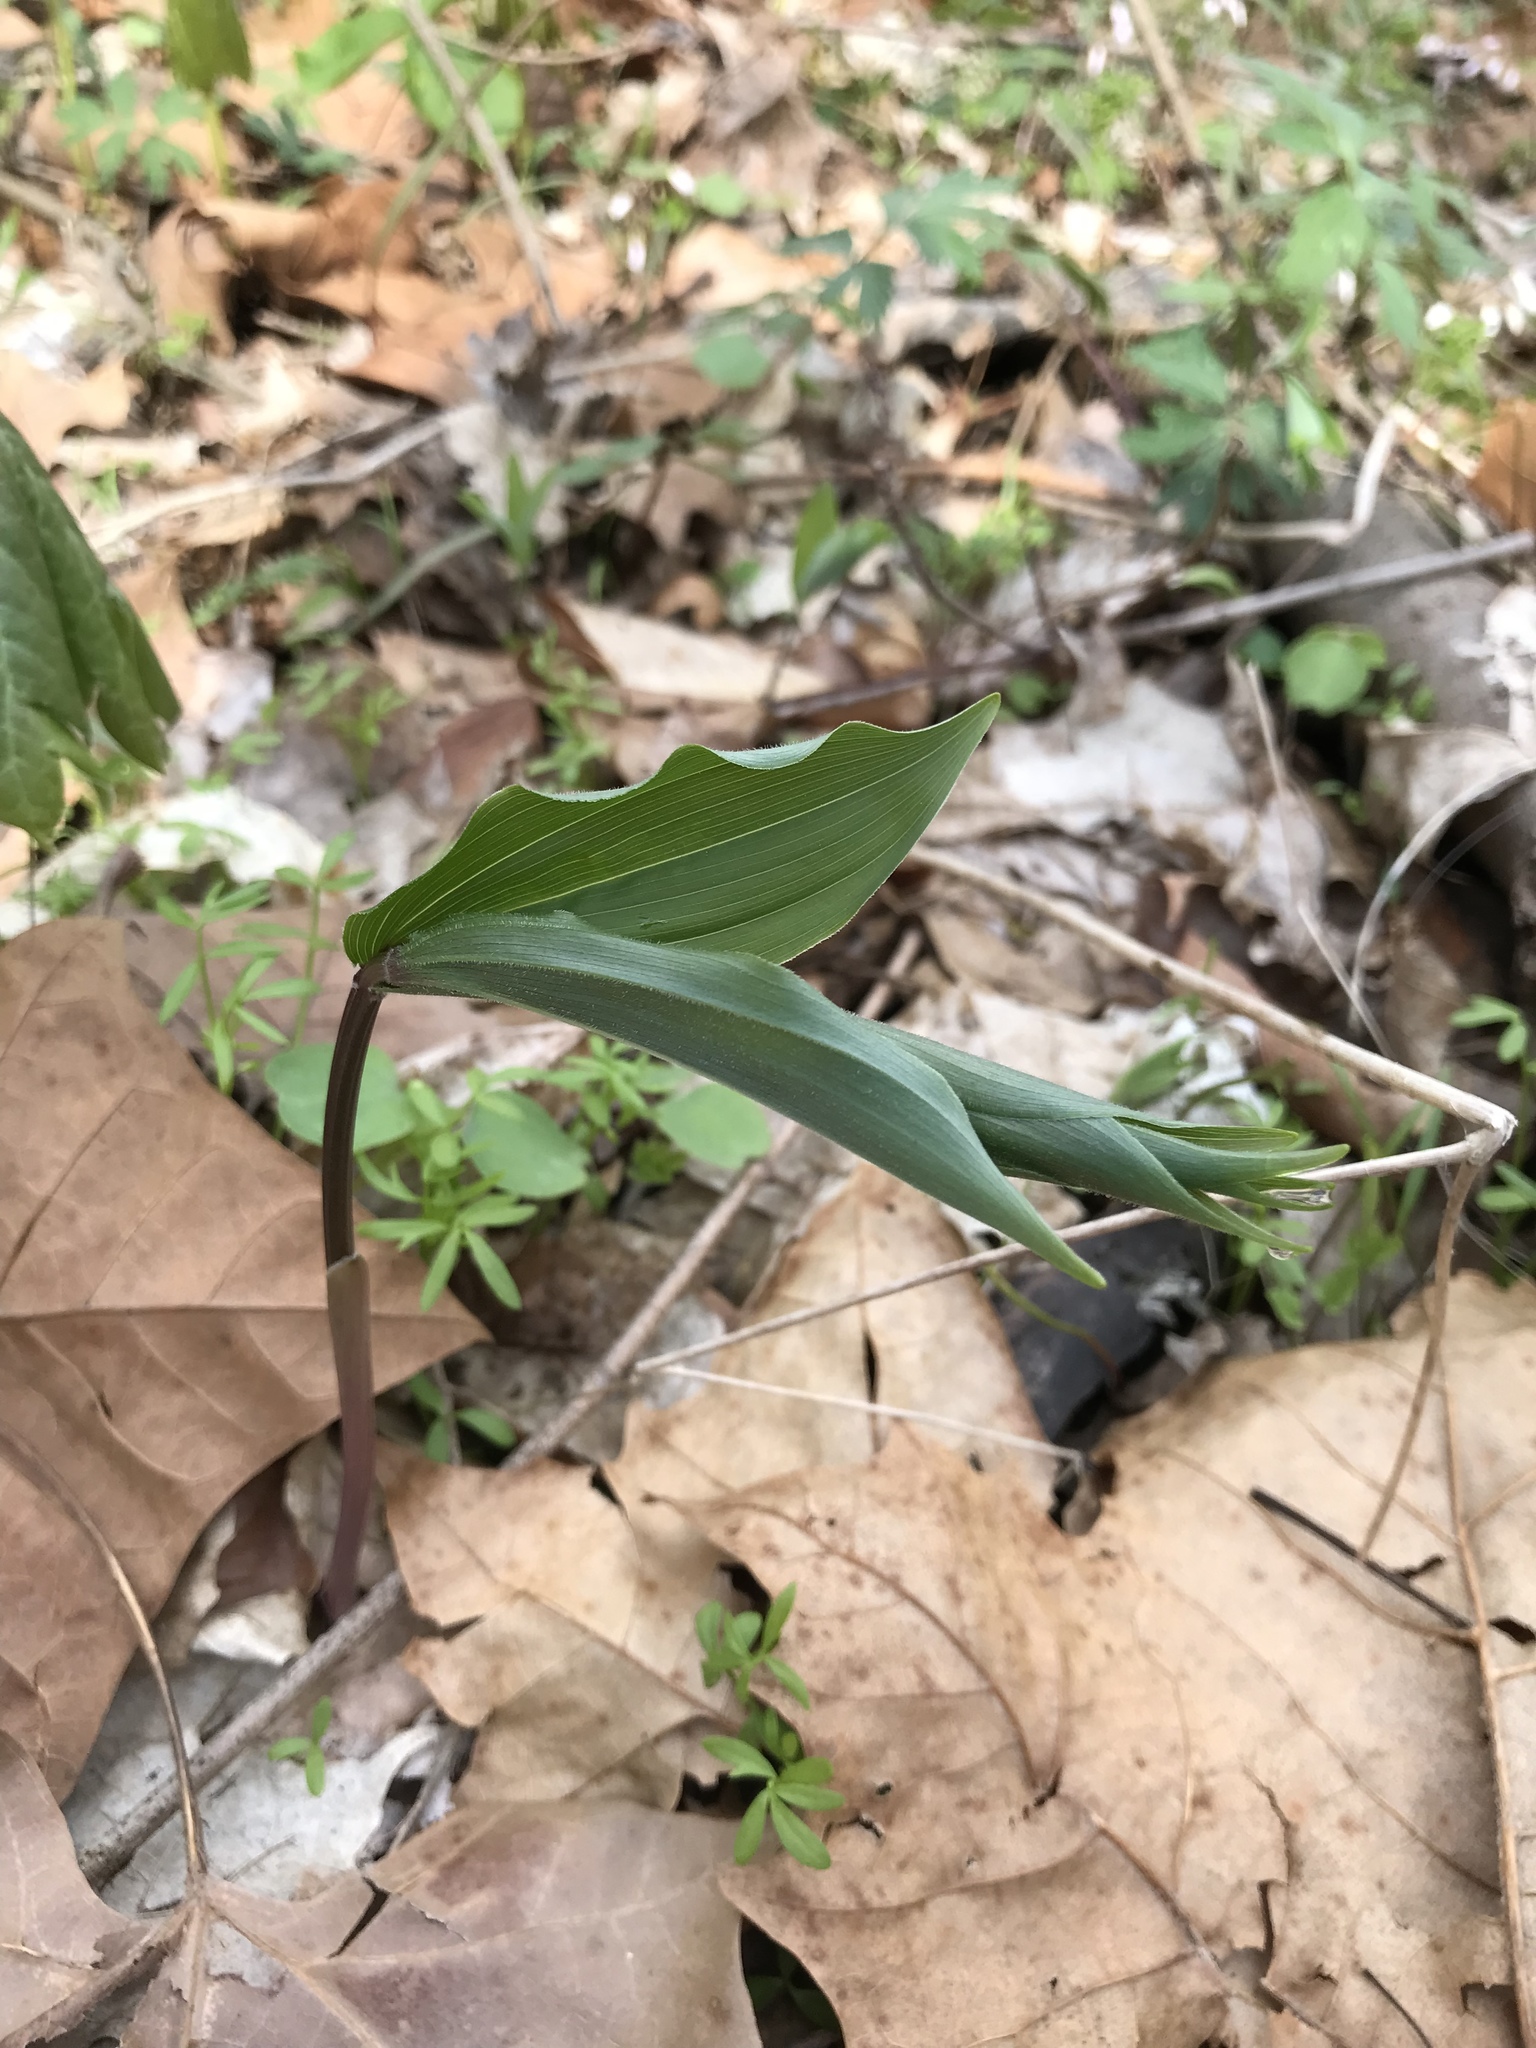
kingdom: Plantae
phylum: Tracheophyta
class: Liliopsida
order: Asparagales
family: Asparagaceae
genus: Maianthemum
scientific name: Maianthemum racemosum
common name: False spikenard
